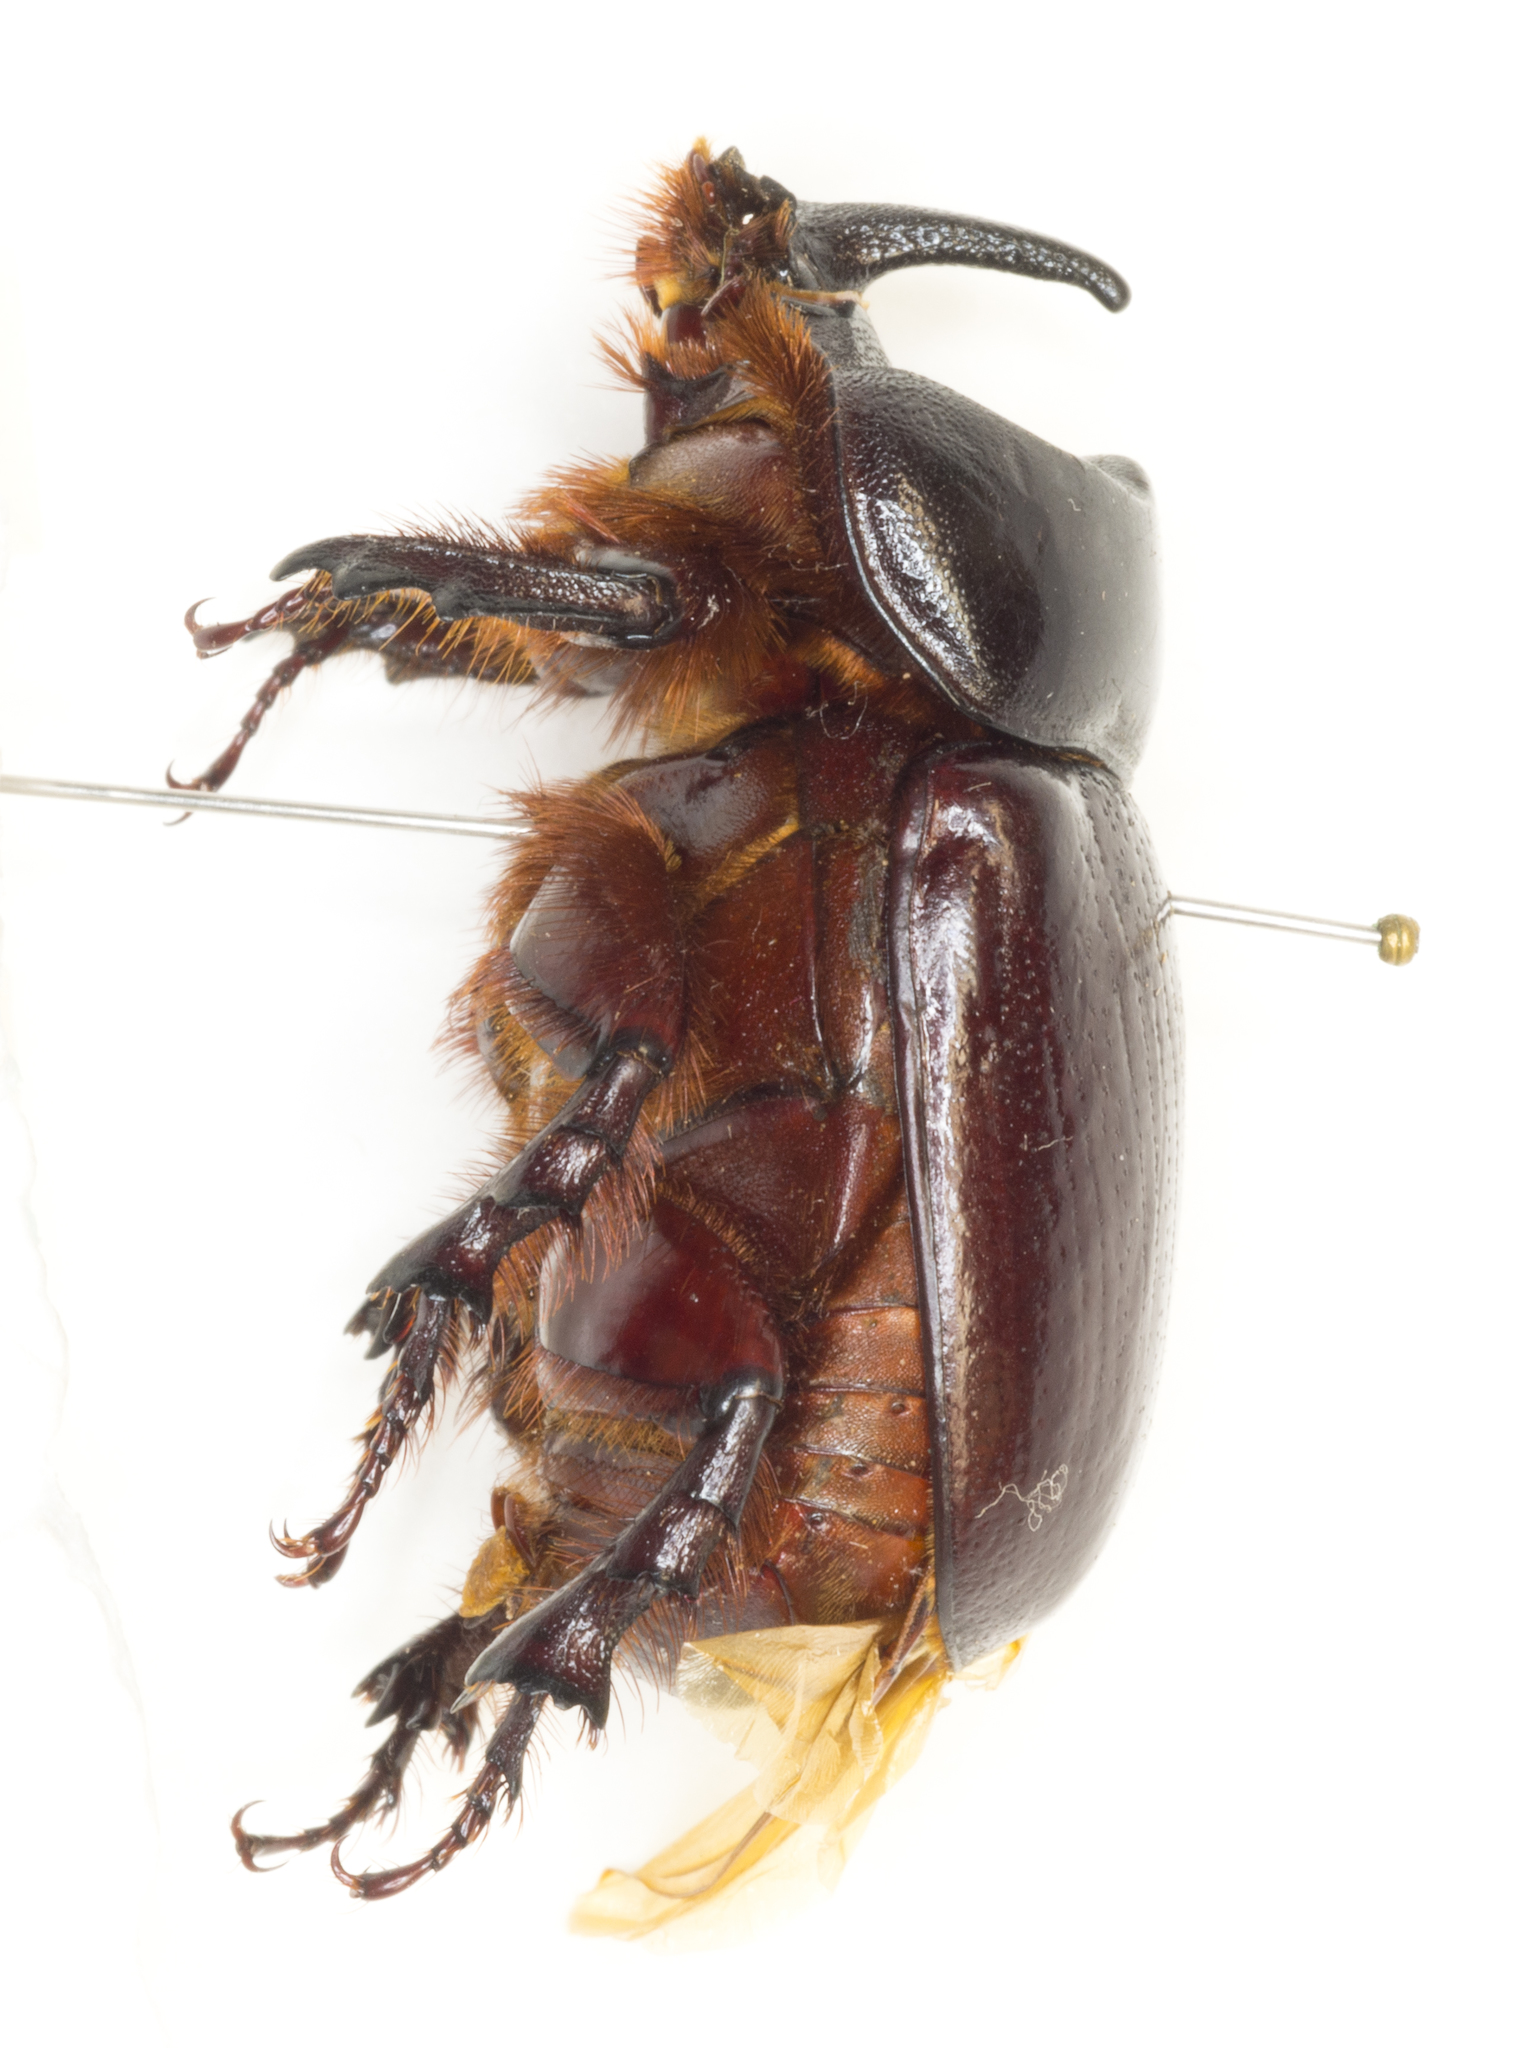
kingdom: Animalia
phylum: Arthropoda
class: Insecta
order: Coleoptera
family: Scarabaeidae
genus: Xyloryctes
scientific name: Xyloryctes thestalus
